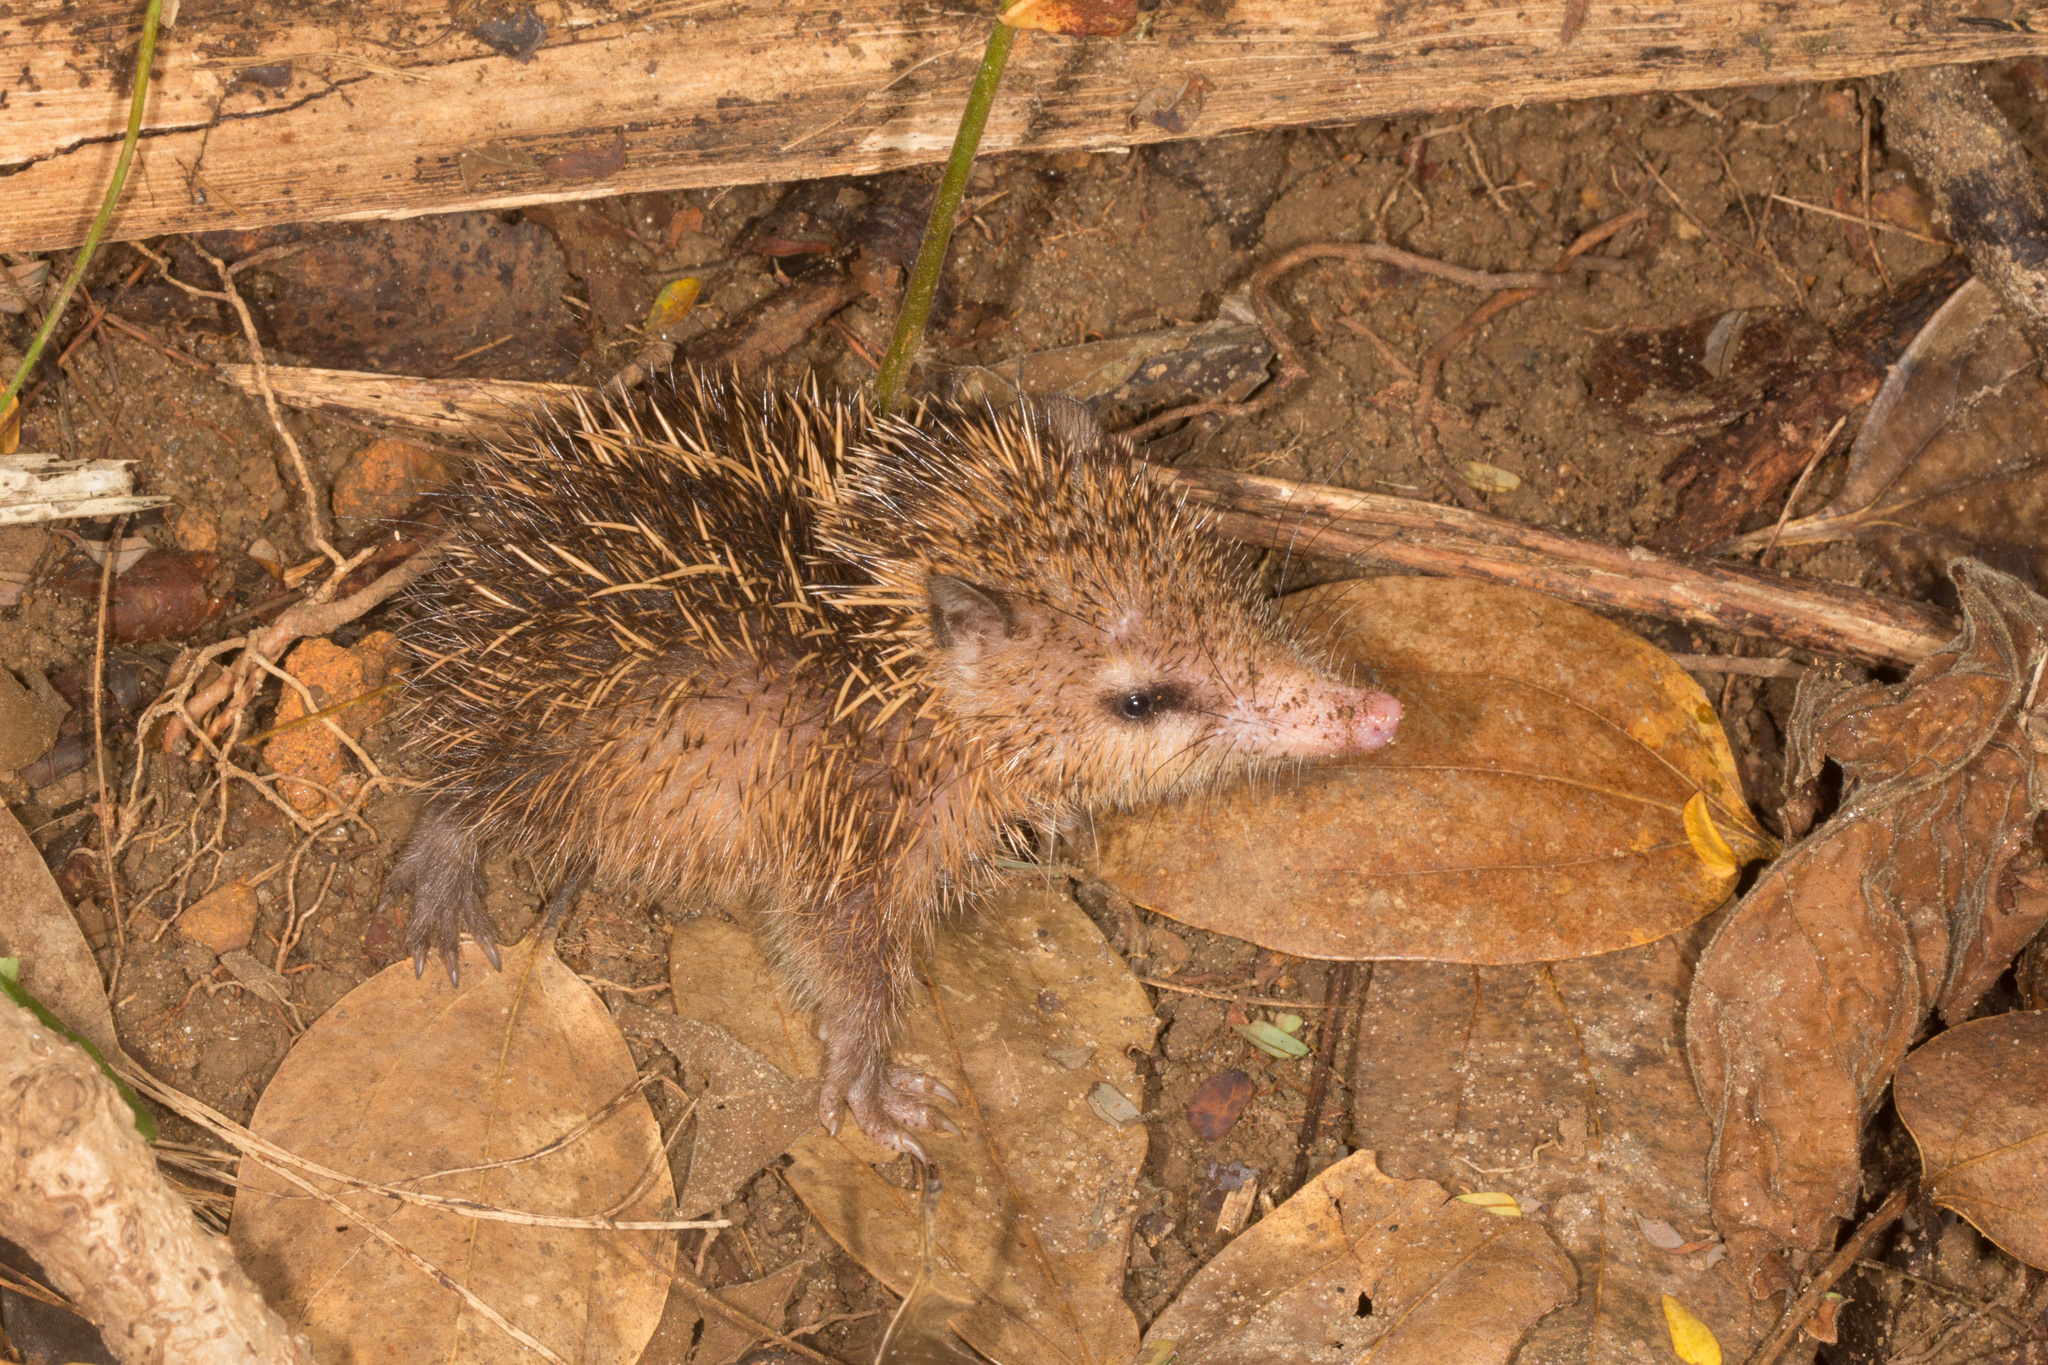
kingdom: Animalia
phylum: Chordata
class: Mammalia
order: Afrosoricida
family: Tenrecidae
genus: Tenrec
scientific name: Tenrec ecaudatus
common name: Common tenrec
